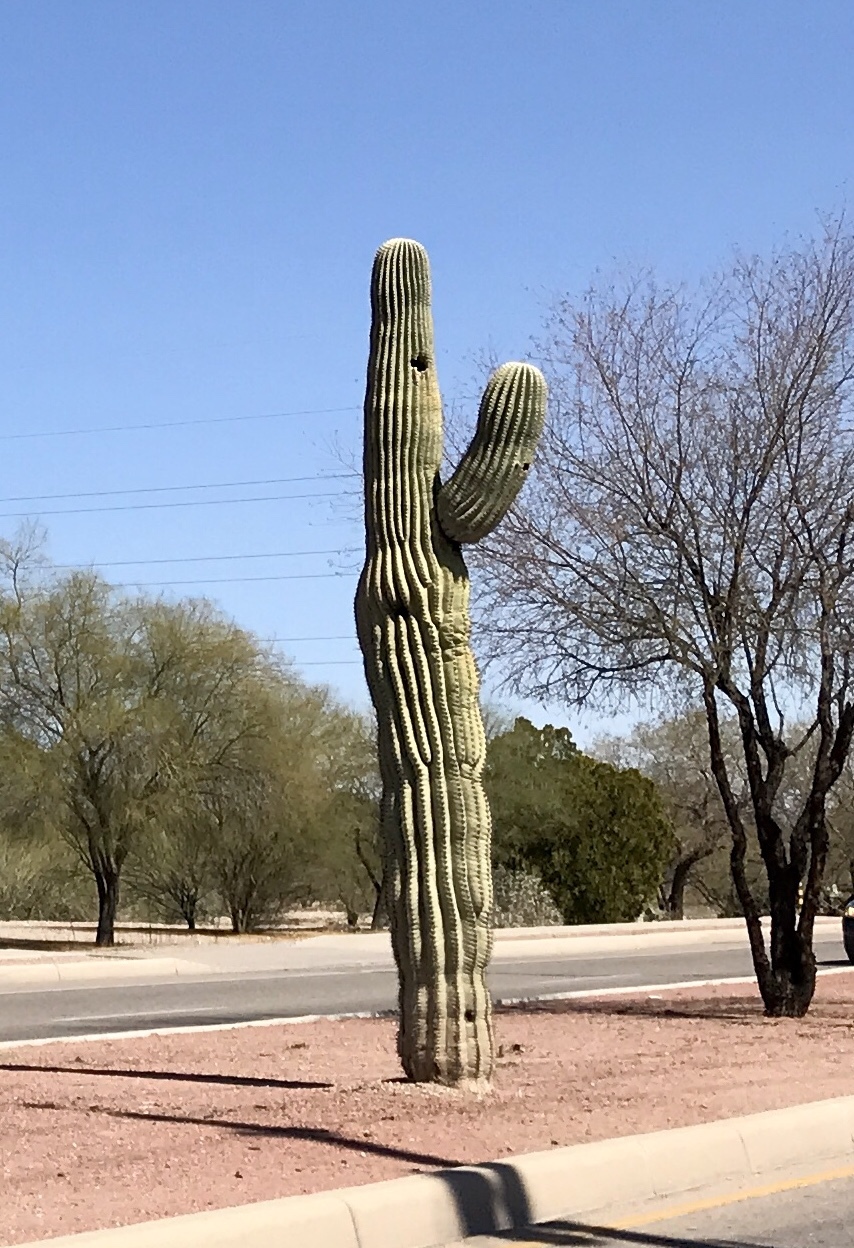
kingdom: Plantae
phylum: Tracheophyta
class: Magnoliopsida
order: Caryophyllales
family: Cactaceae
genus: Carnegiea
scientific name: Carnegiea gigantea
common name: Saguaro
